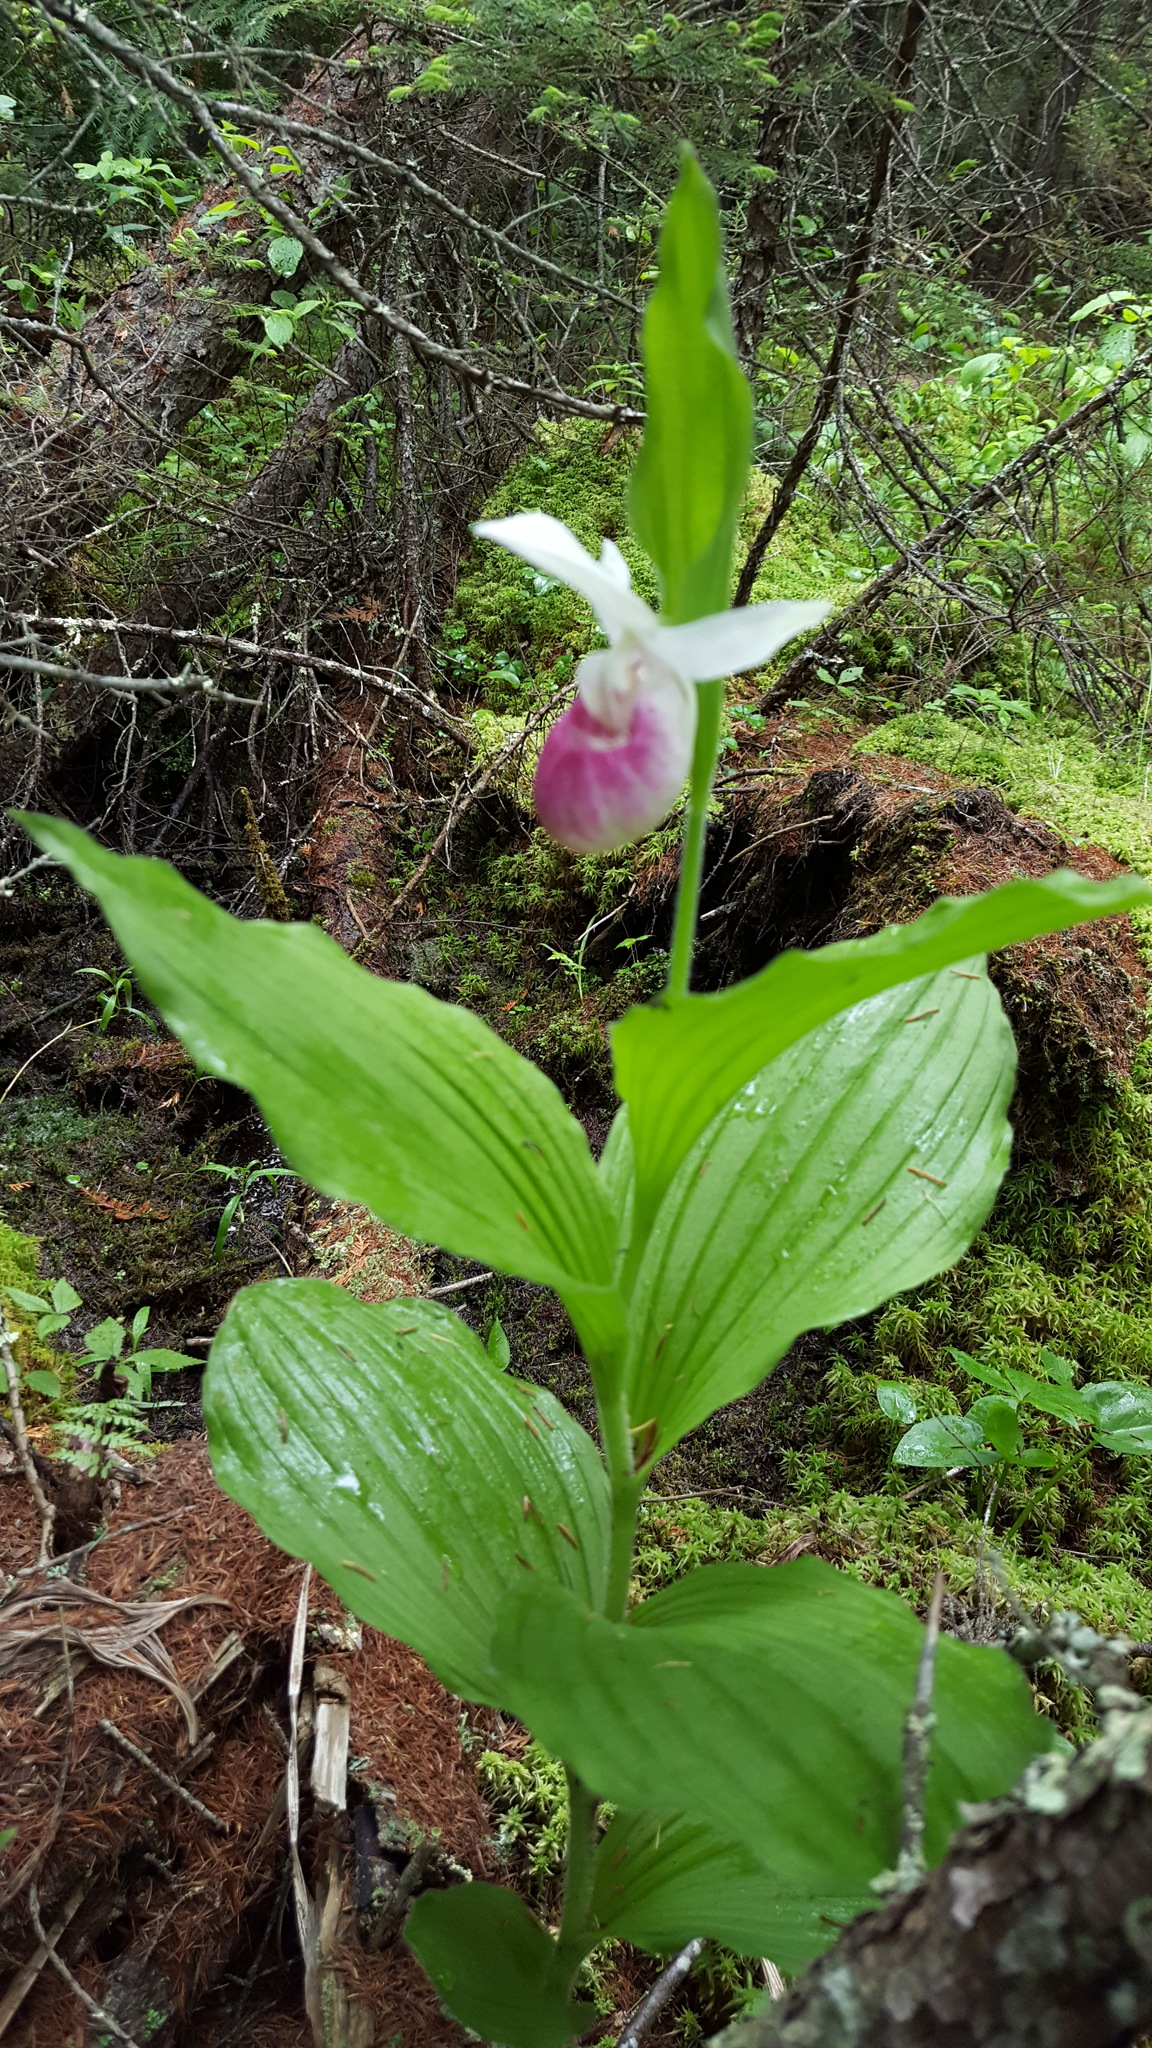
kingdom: Plantae
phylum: Tracheophyta
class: Liliopsida
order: Asparagales
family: Orchidaceae
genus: Cypripedium
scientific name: Cypripedium reginae
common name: Queen lady's-slipper
